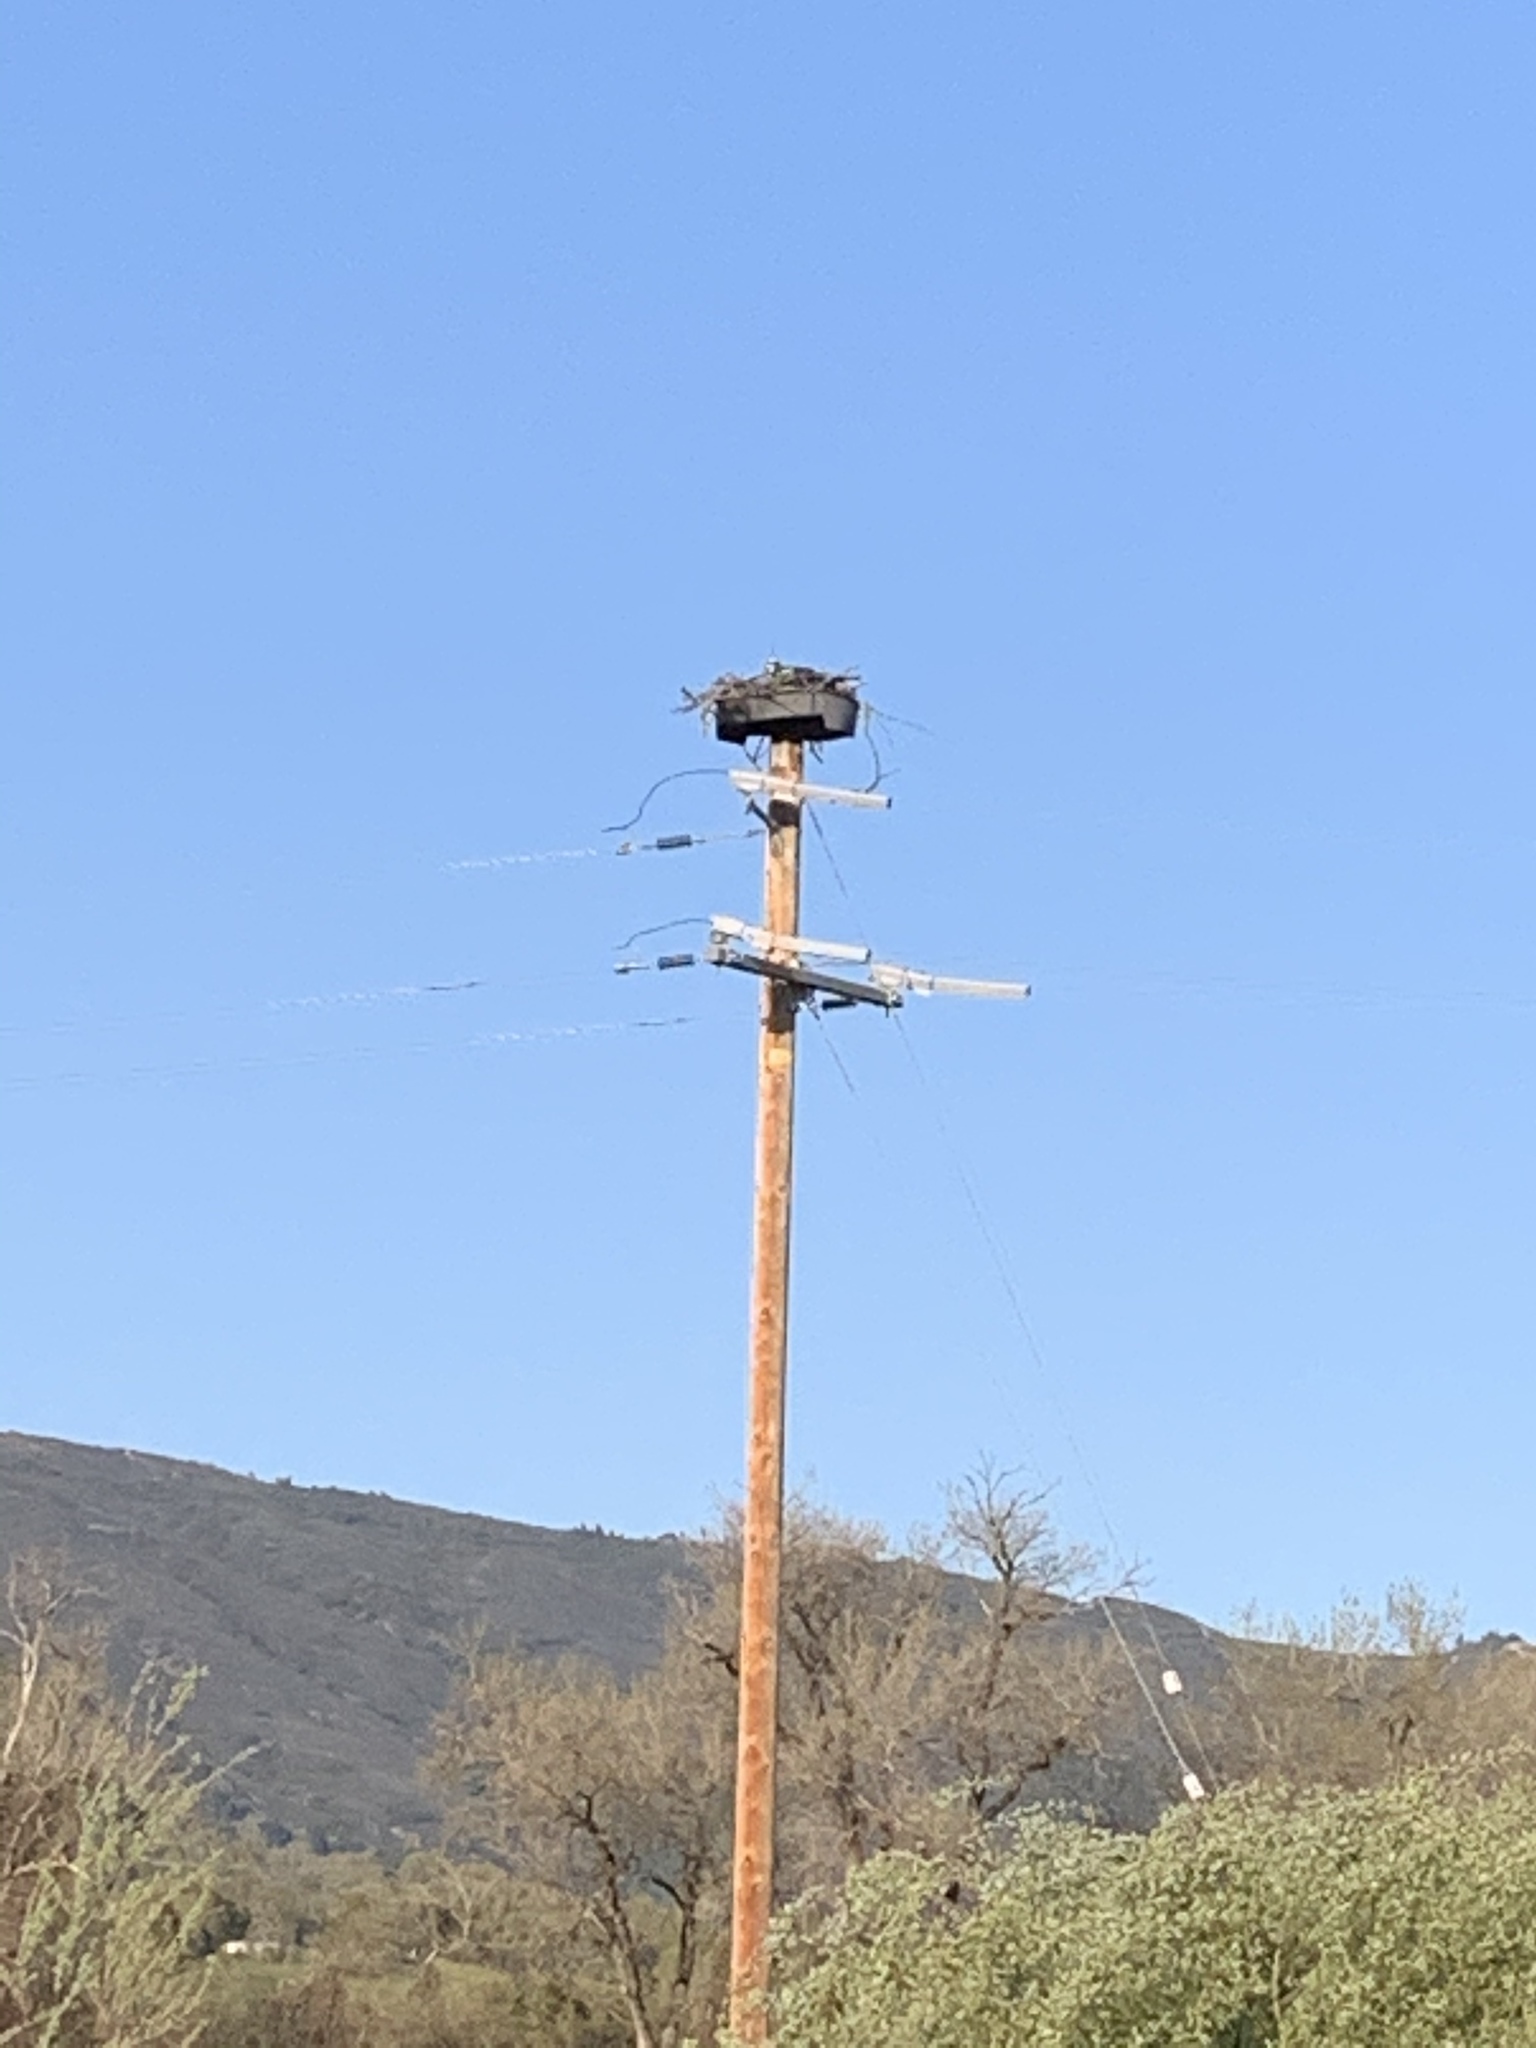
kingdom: Animalia
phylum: Chordata
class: Aves
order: Accipitriformes
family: Pandionidae
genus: Pandion
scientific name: Pandion haliaetus
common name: Osprey
